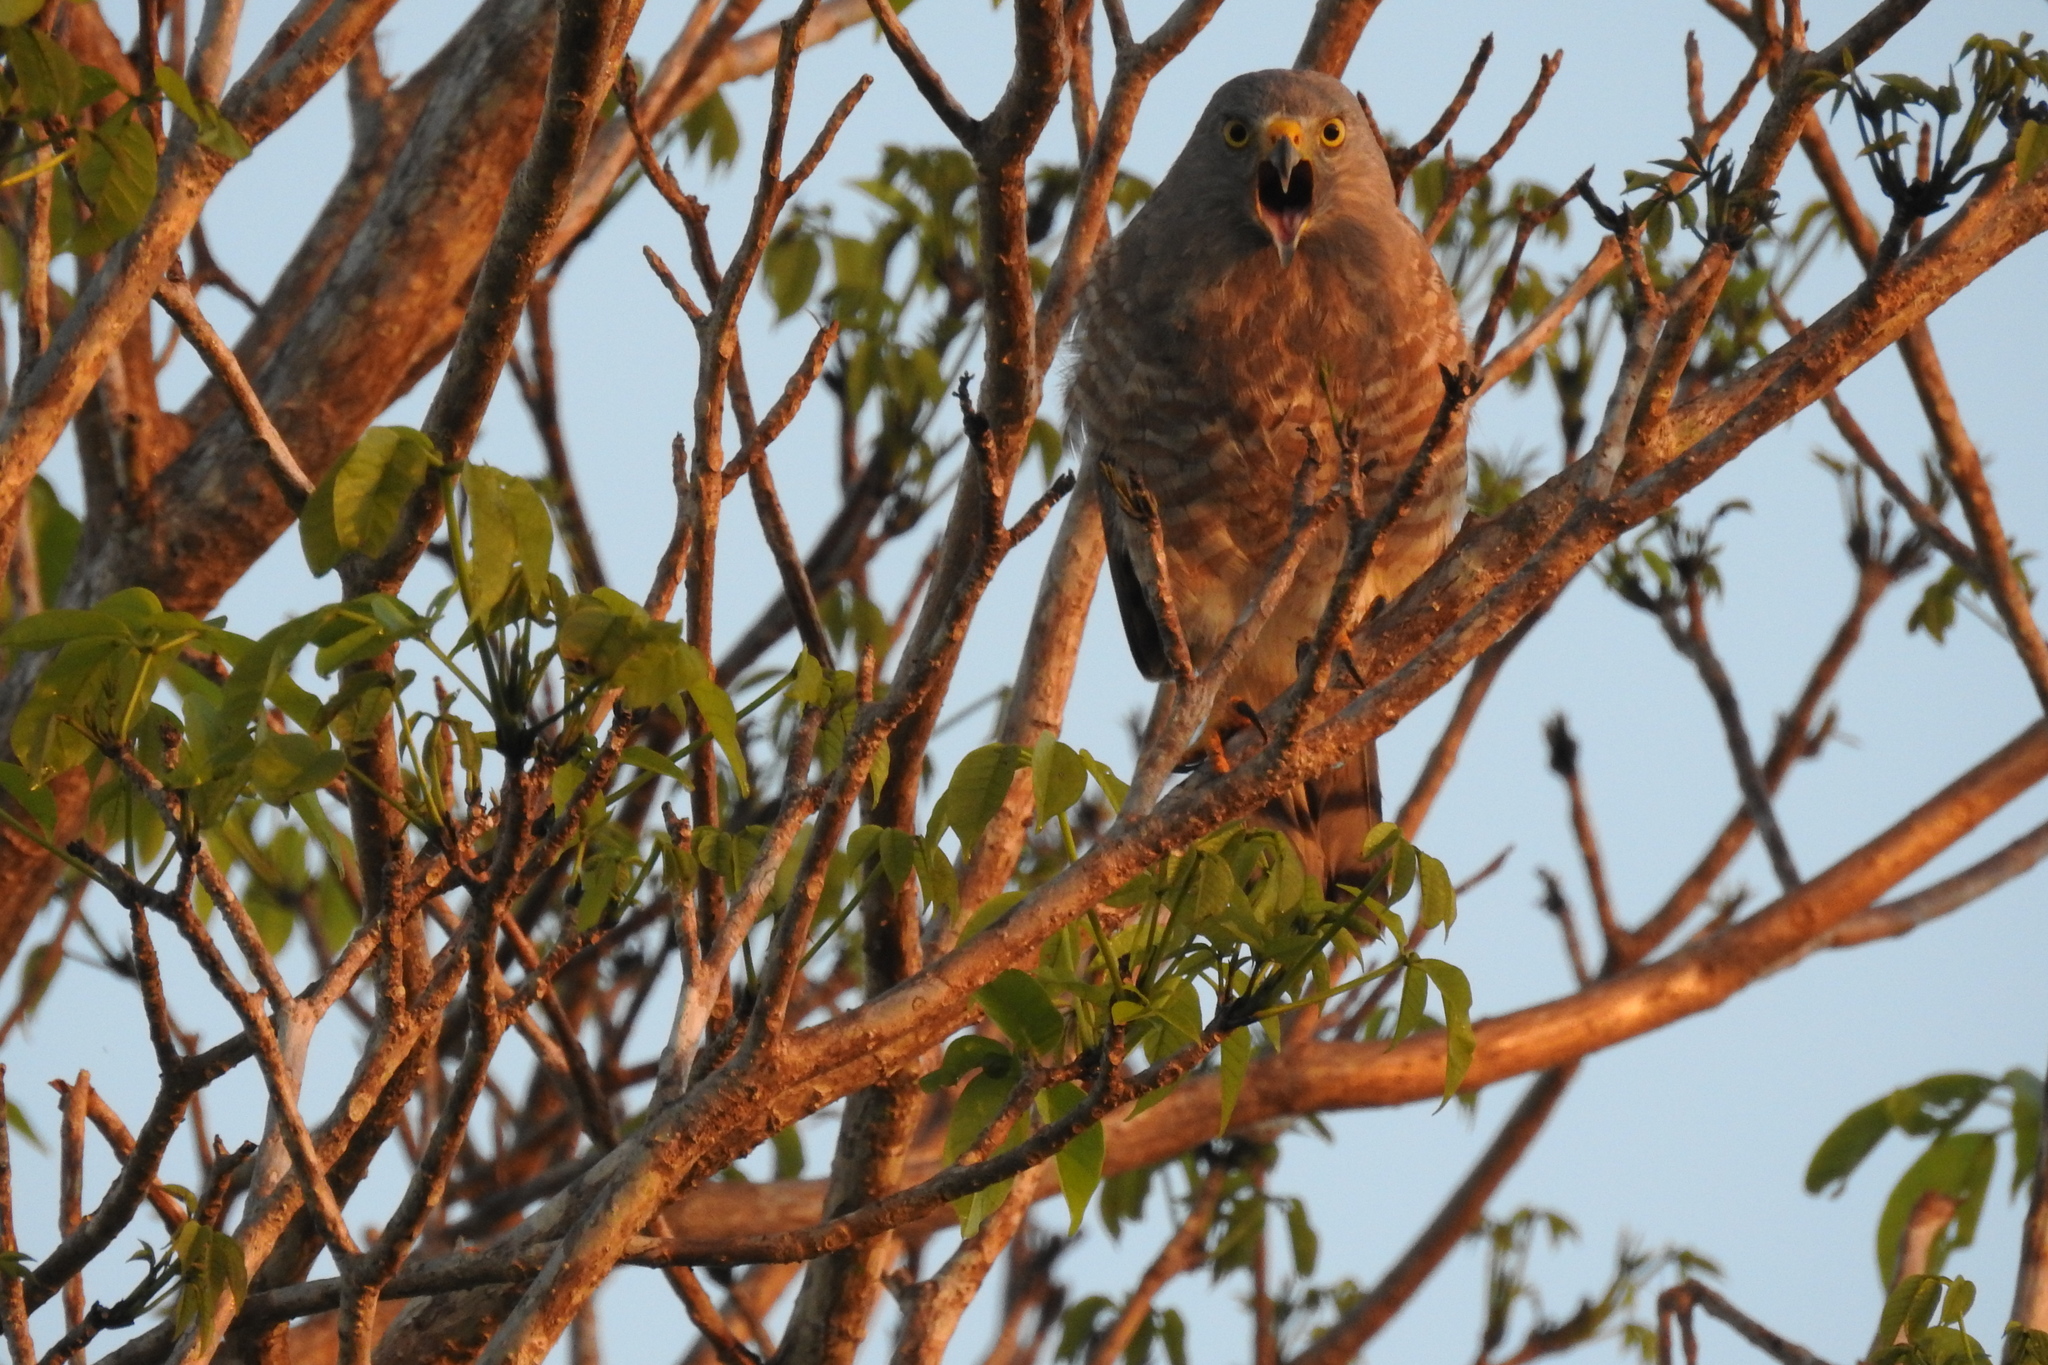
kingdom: Animalia
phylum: Chordata
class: Aves
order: Accipitriformes
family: Accipitridae
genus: Rupornis
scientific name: Rupornis magnirostris
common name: Roadside hawk
